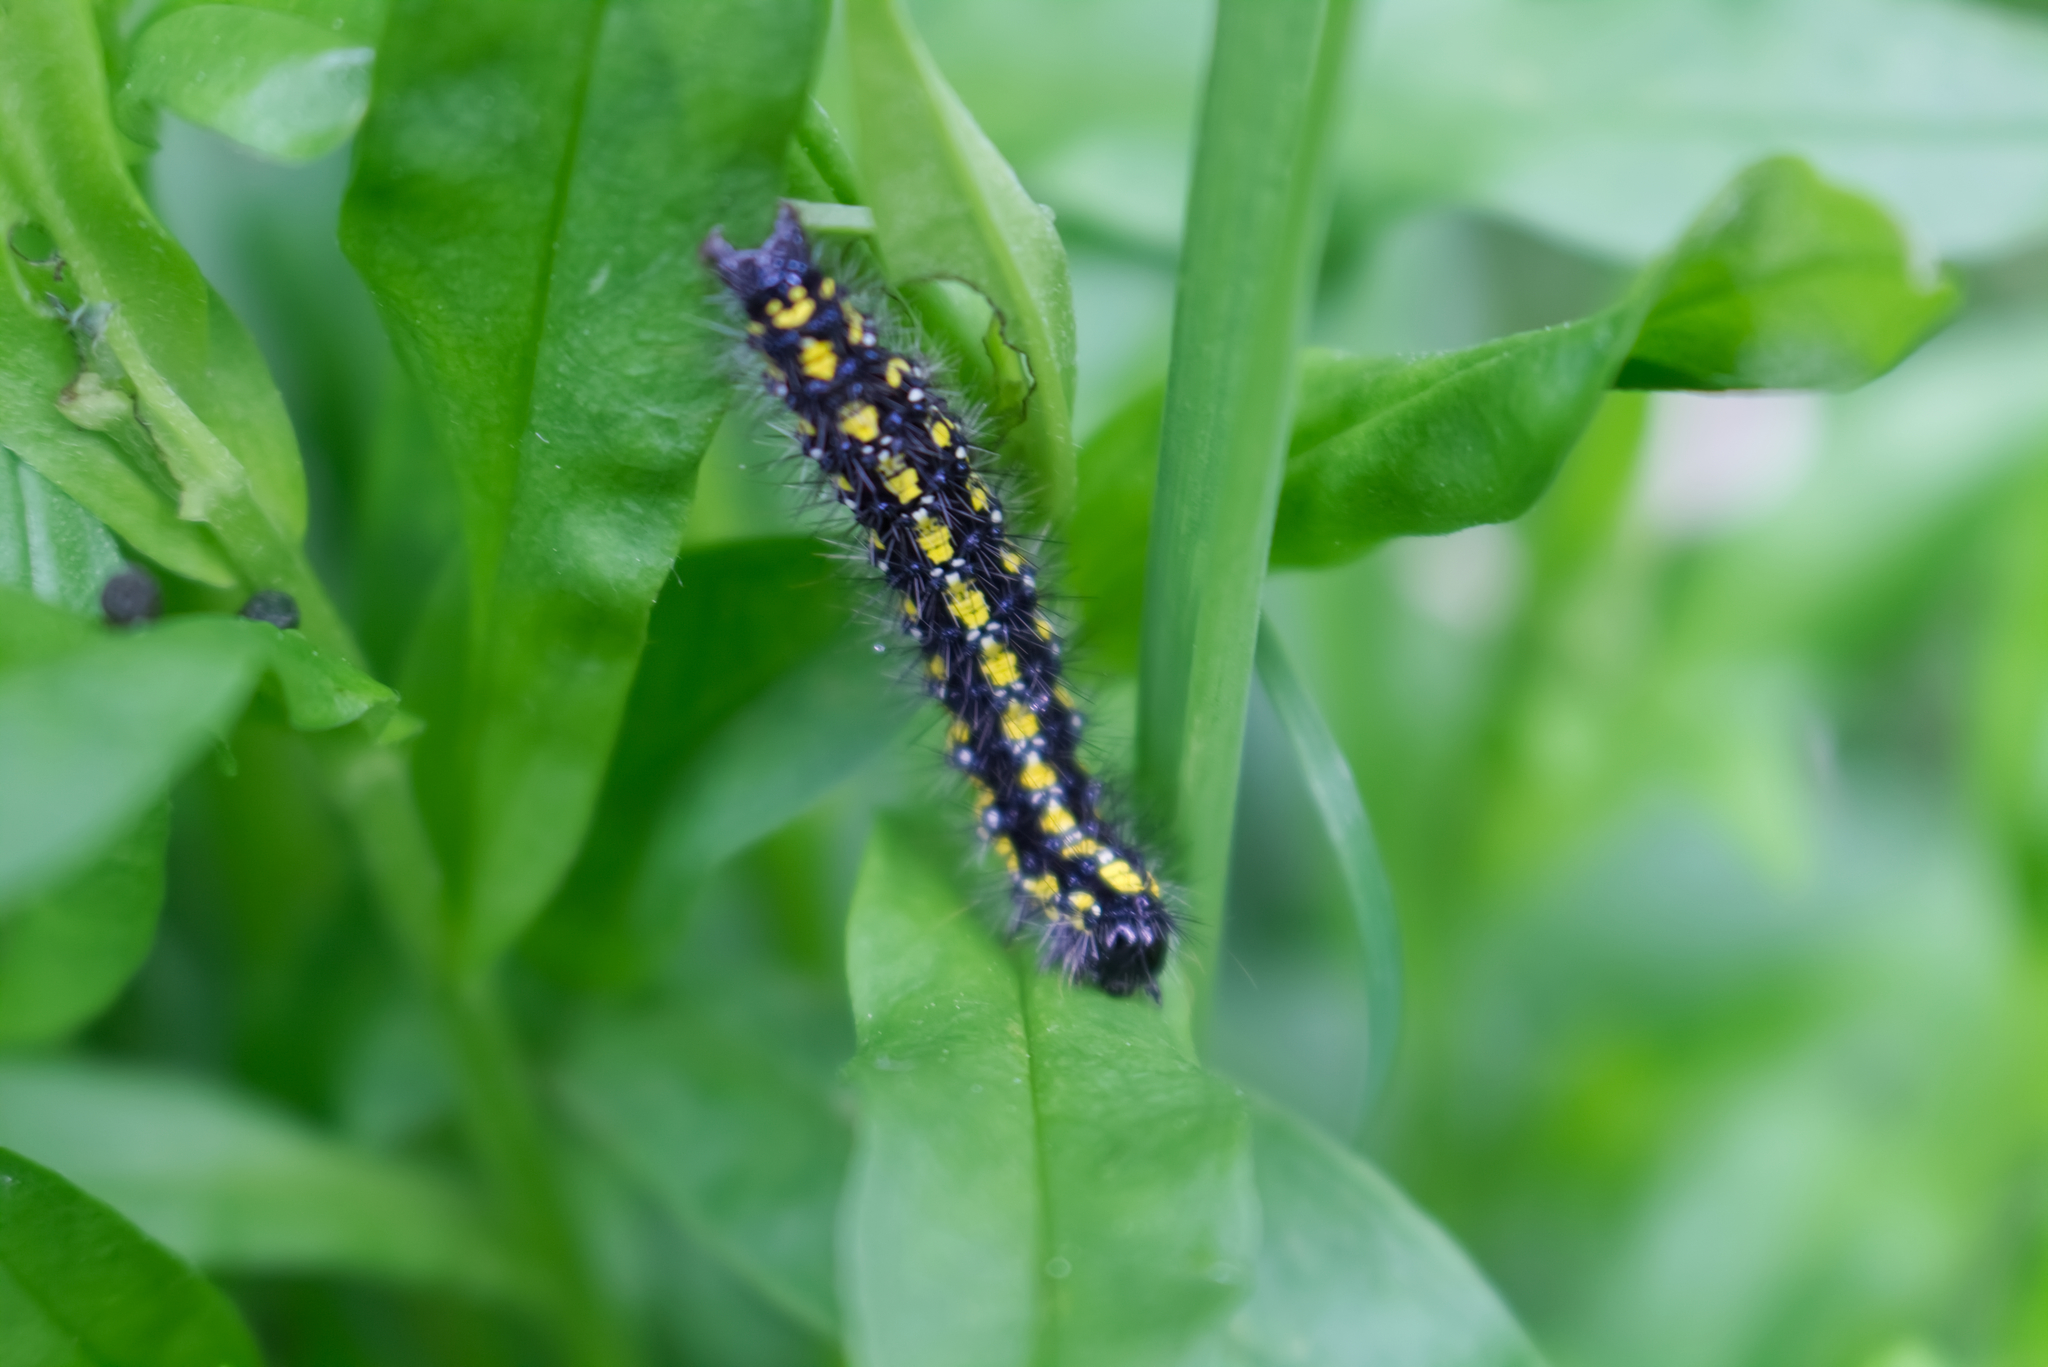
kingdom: Animalia
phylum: Arthropoda
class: Insecta
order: Lepidoptera
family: Erebidae
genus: Callimorpha
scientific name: Callimorpha dominula
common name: Scarlet tiger
